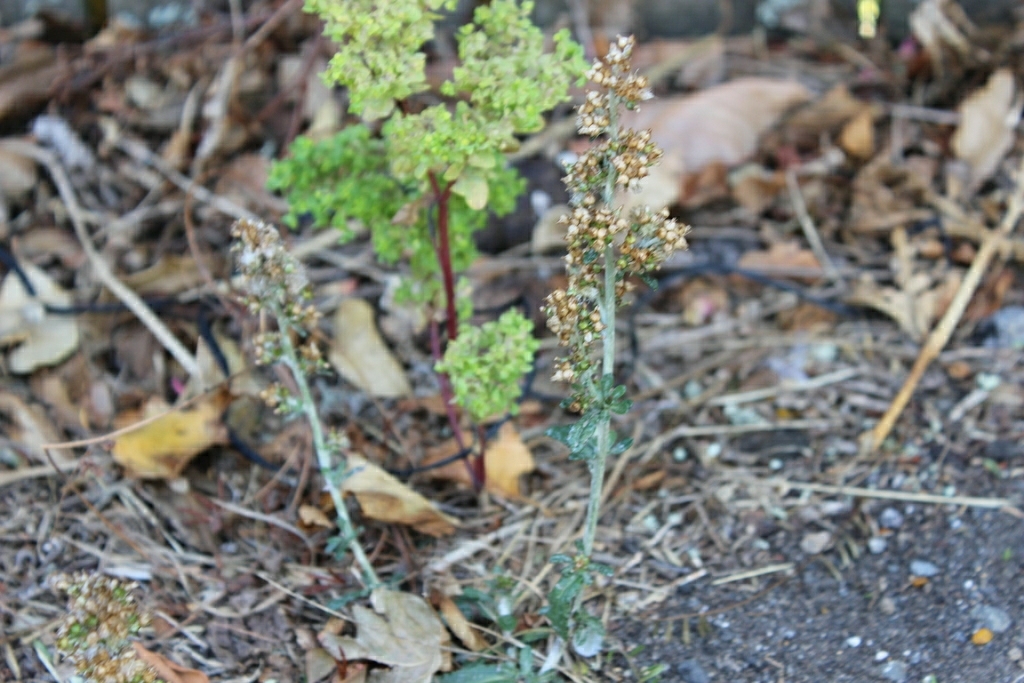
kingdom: Plantae
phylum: Tracheophyta
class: Magnoliopsida
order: Malpighiales
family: Euphorbiaceae
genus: Euphorbia
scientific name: Euphorbia peplus
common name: Petty spurge
